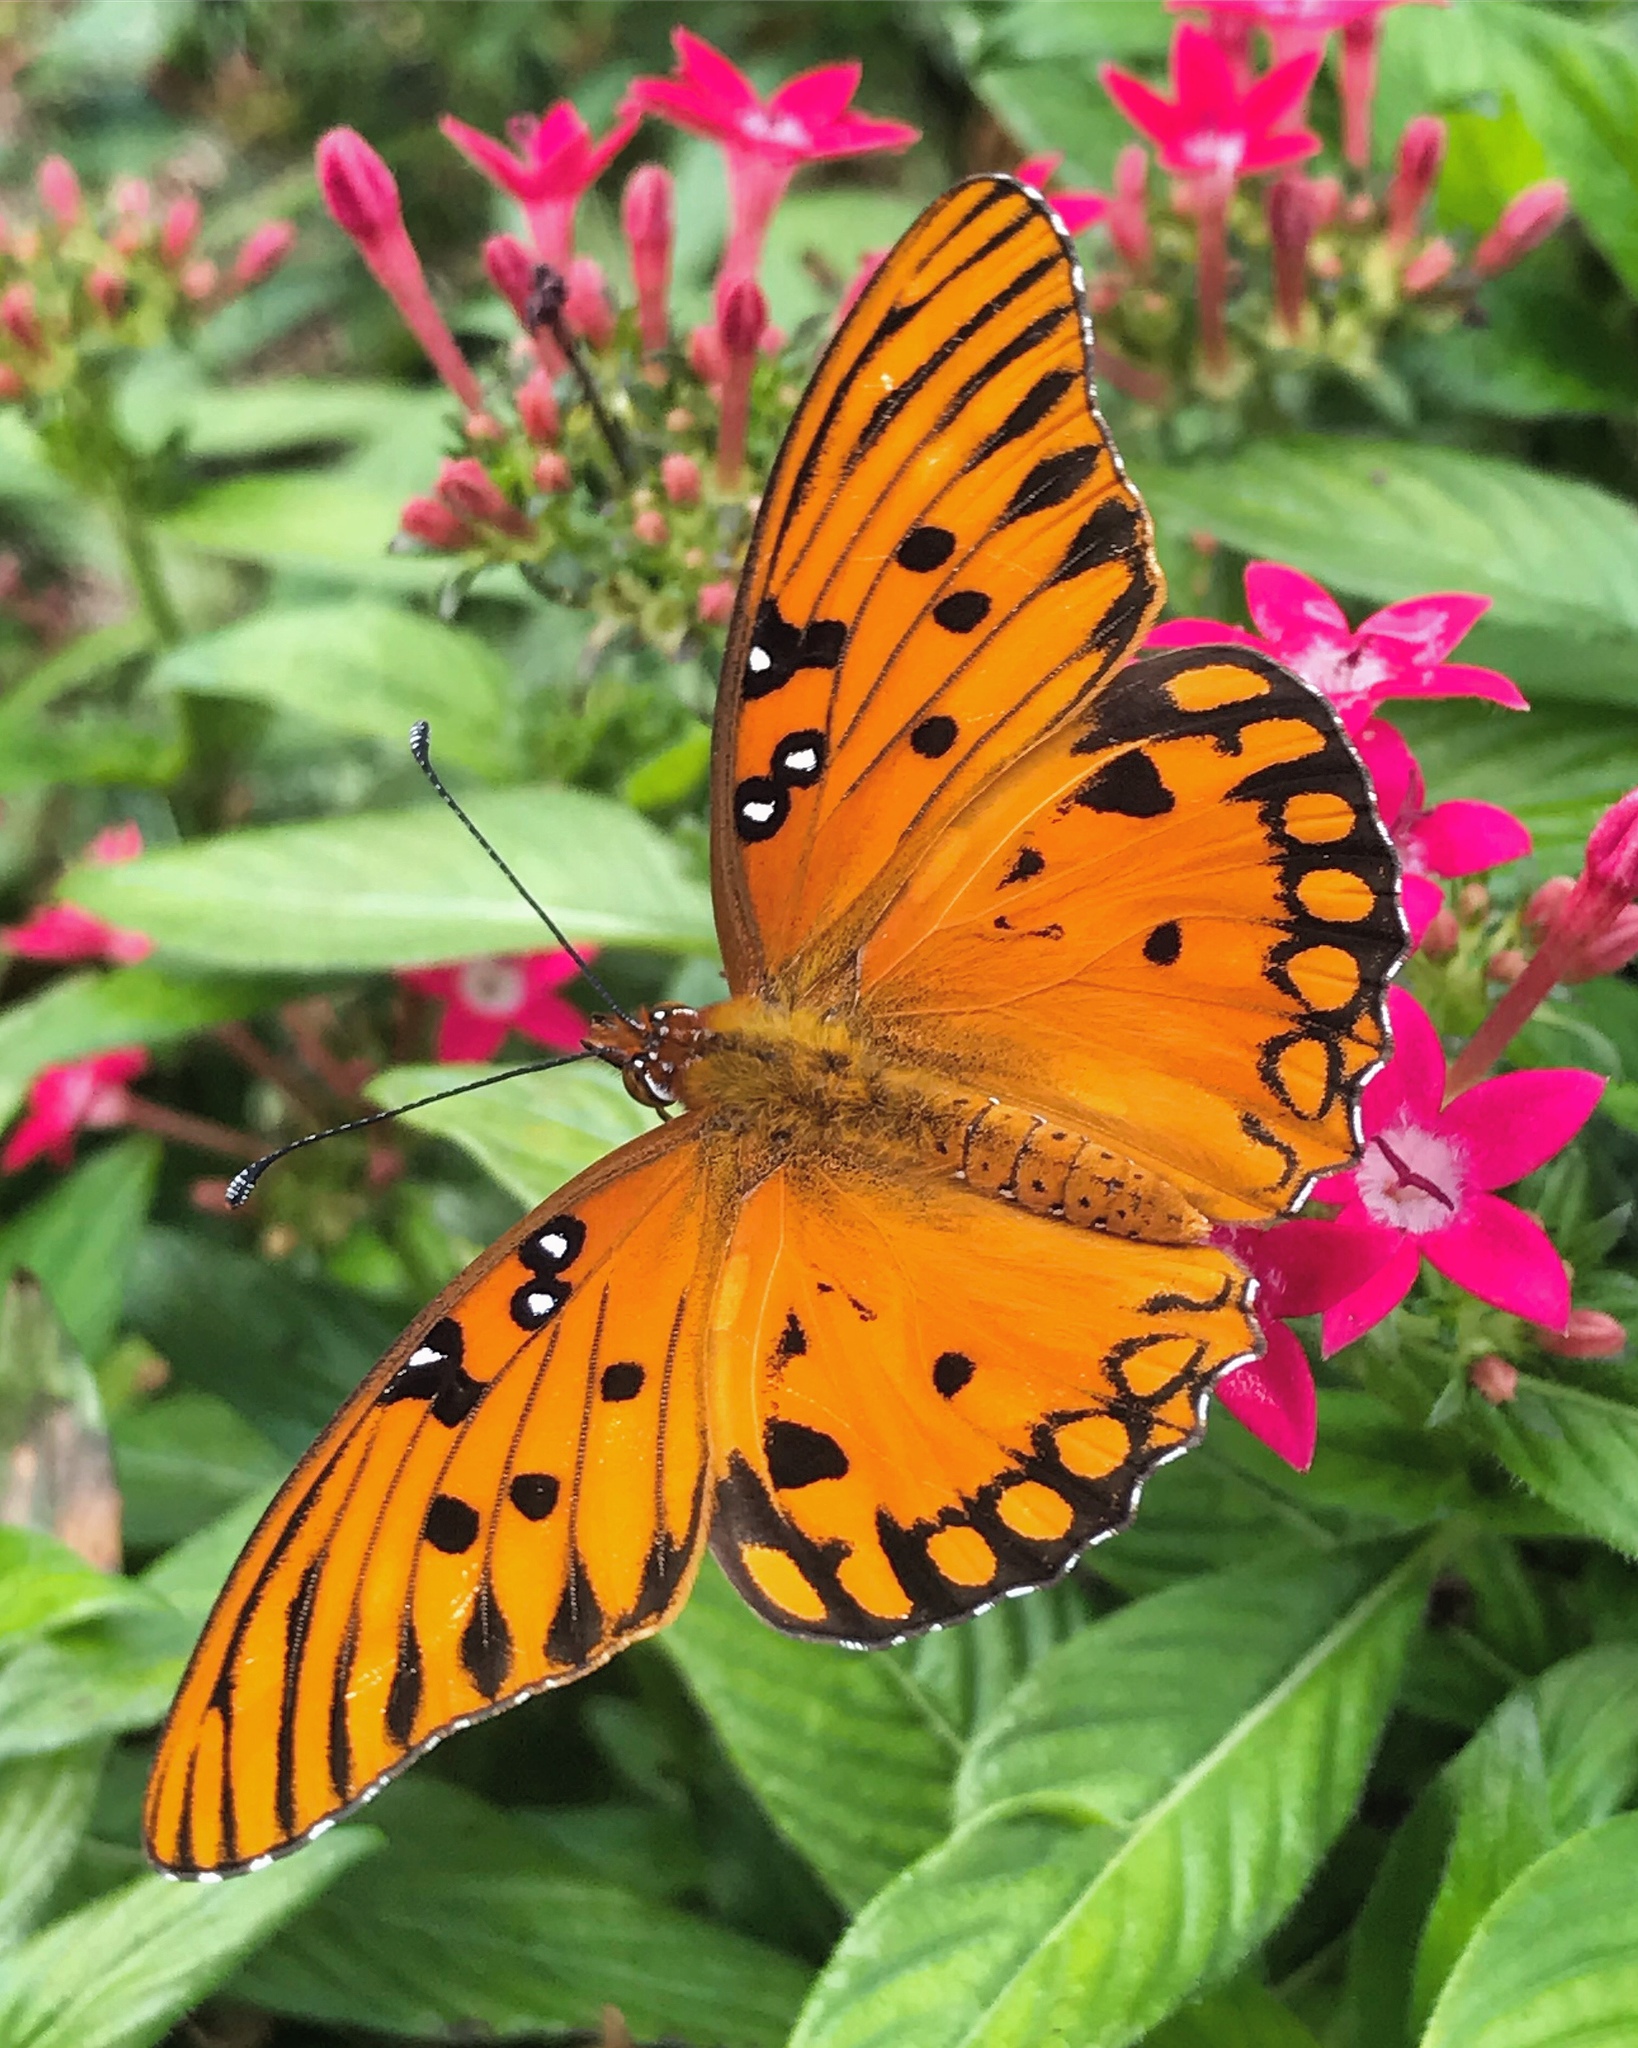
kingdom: Animalia
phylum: Arthropoda
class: Insecta
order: Lepidoptera
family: Nymphalidae
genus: Dione
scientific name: Dione vanillae
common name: Gulf fritillary
